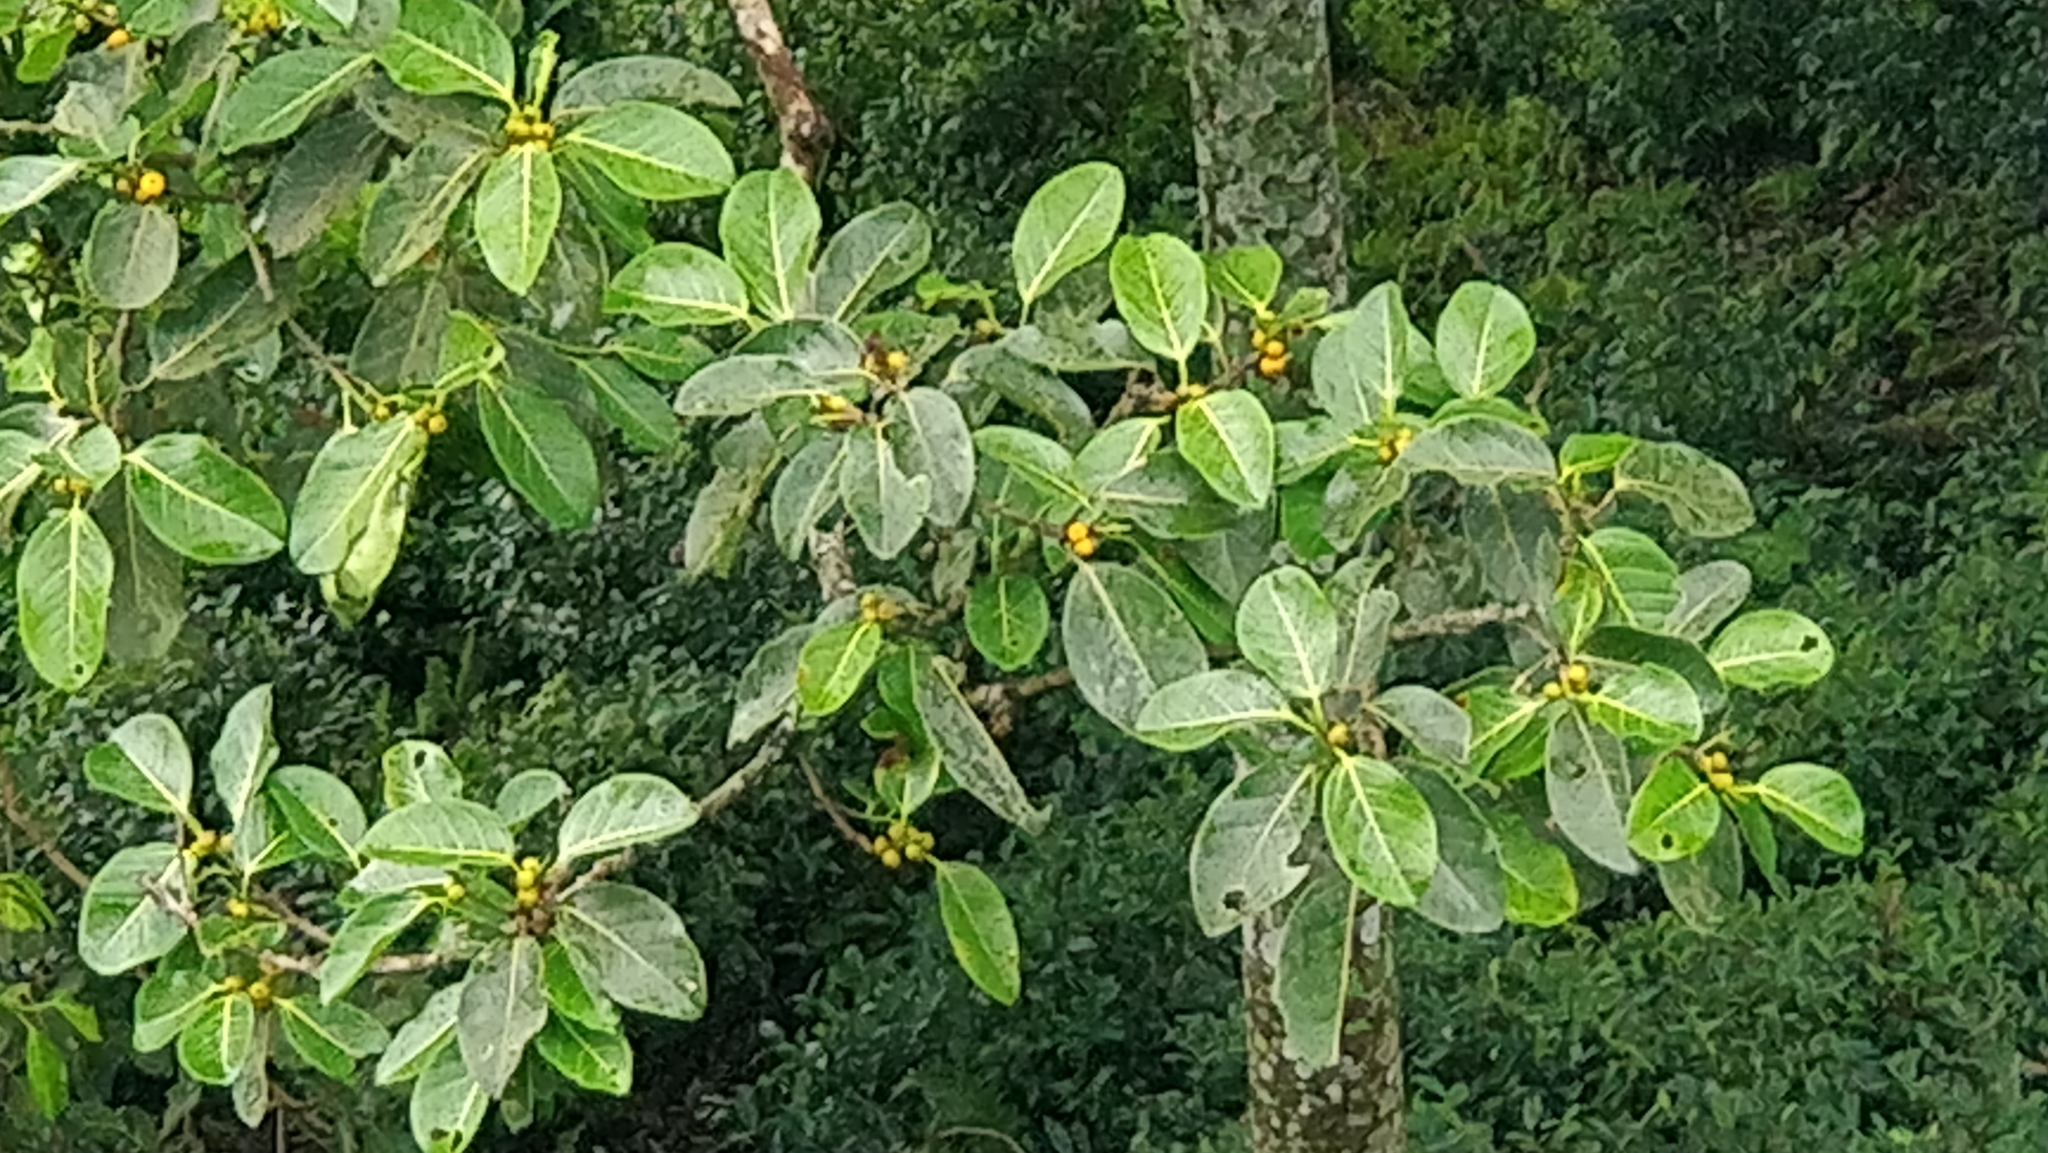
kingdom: Plantae
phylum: Tracheophyta
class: Magnoliopsida
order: Rosales
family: Moraceae
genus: Ficus
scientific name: Ficus benghalensis
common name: Indian banyan
